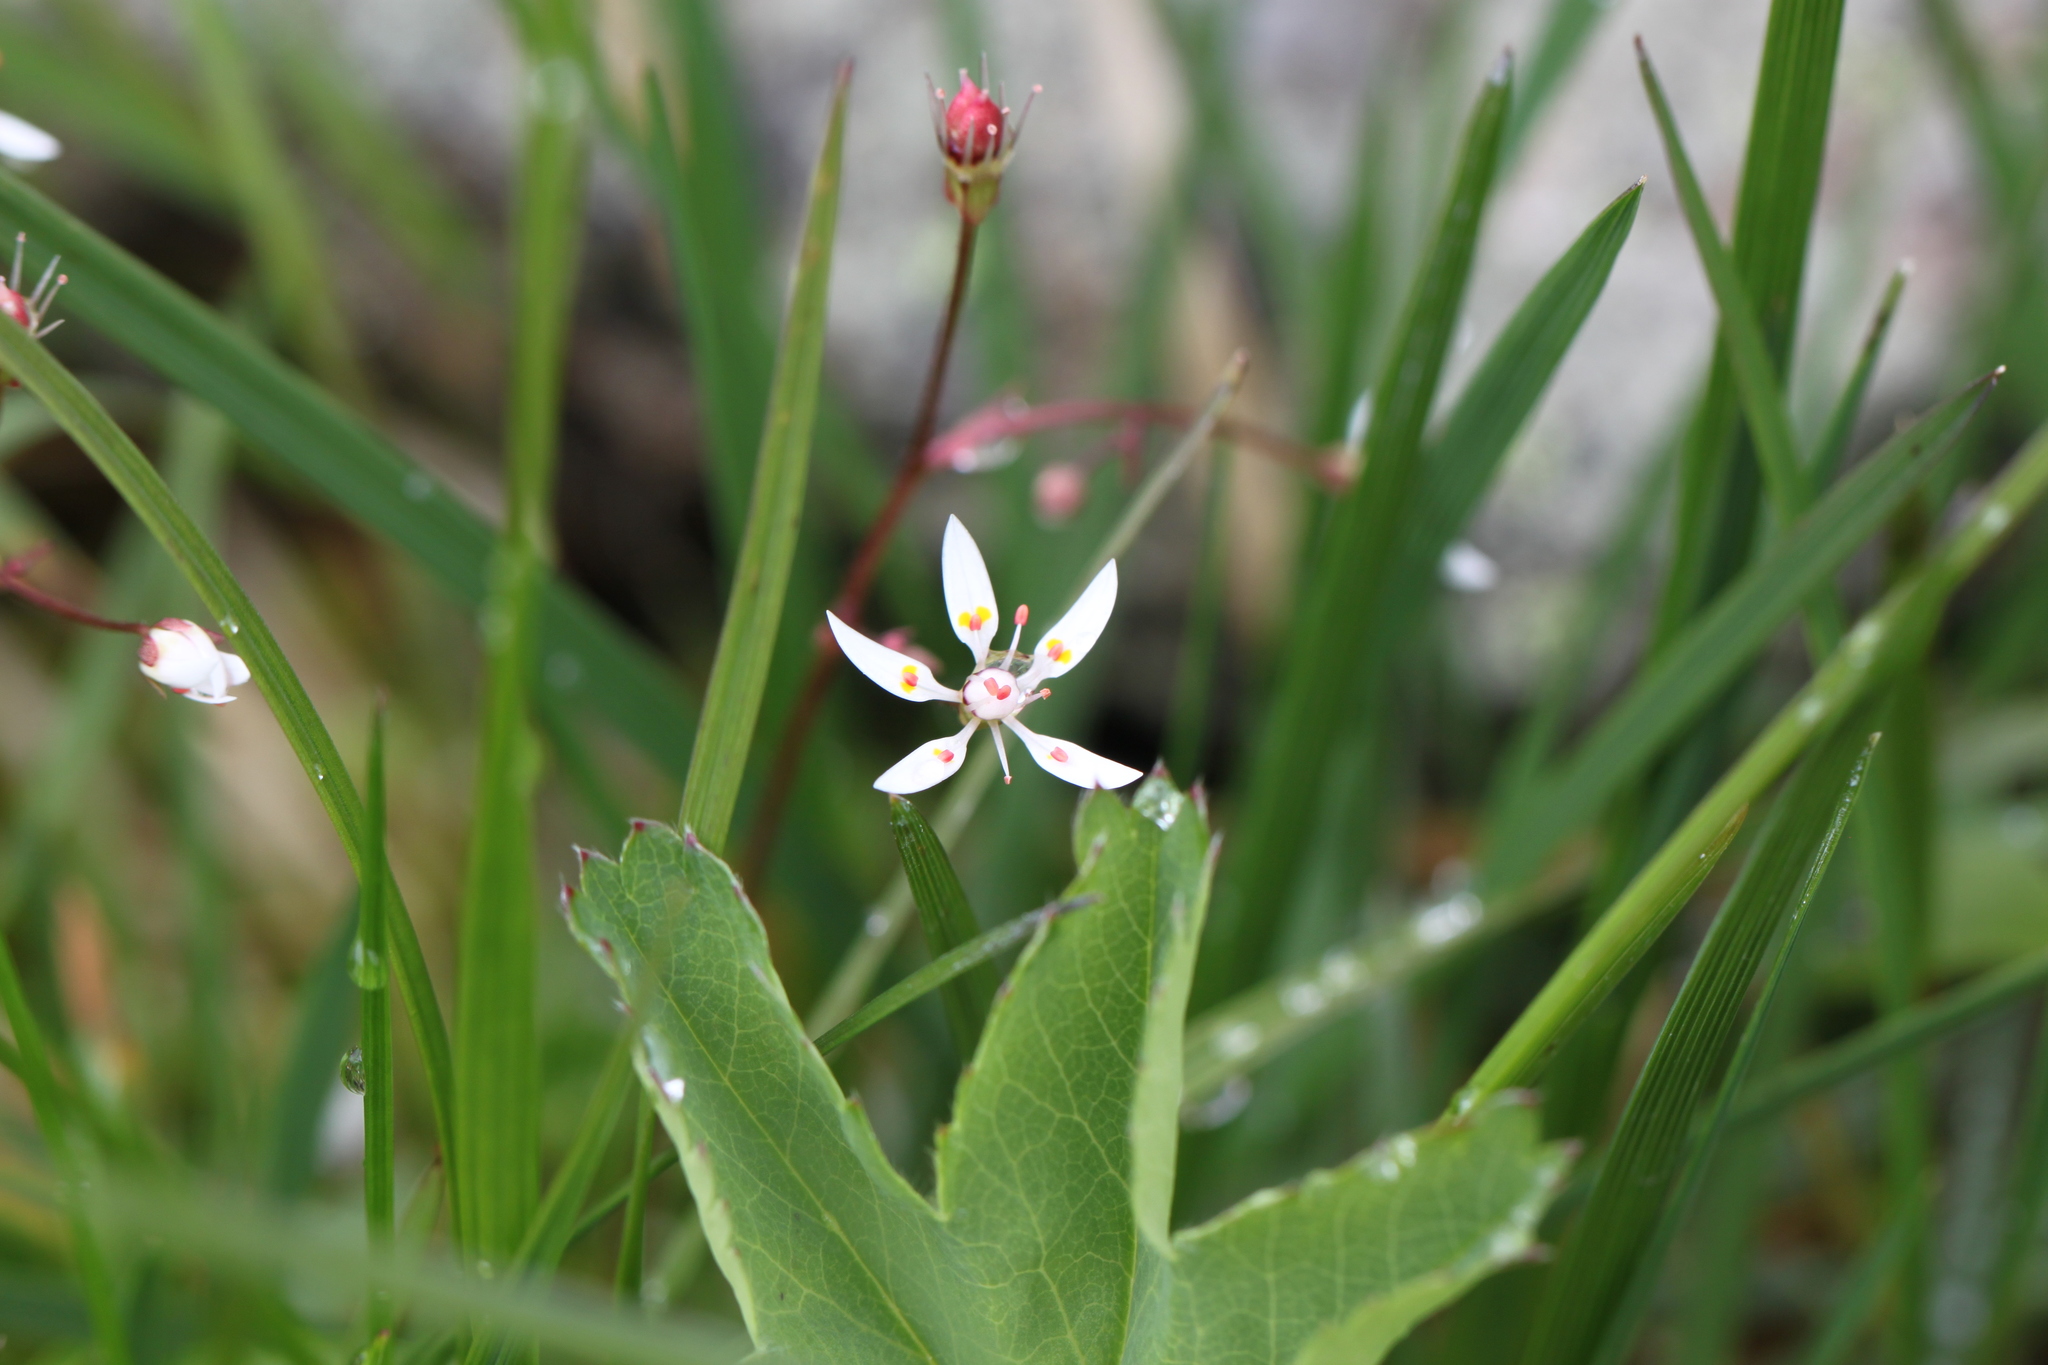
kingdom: Plantae
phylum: Tracheophyta
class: Magnoliopsida
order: Saxifragales
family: Saxifragaceae
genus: Micranthes
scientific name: Micranthes stellaris
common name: Starry saxifrage
